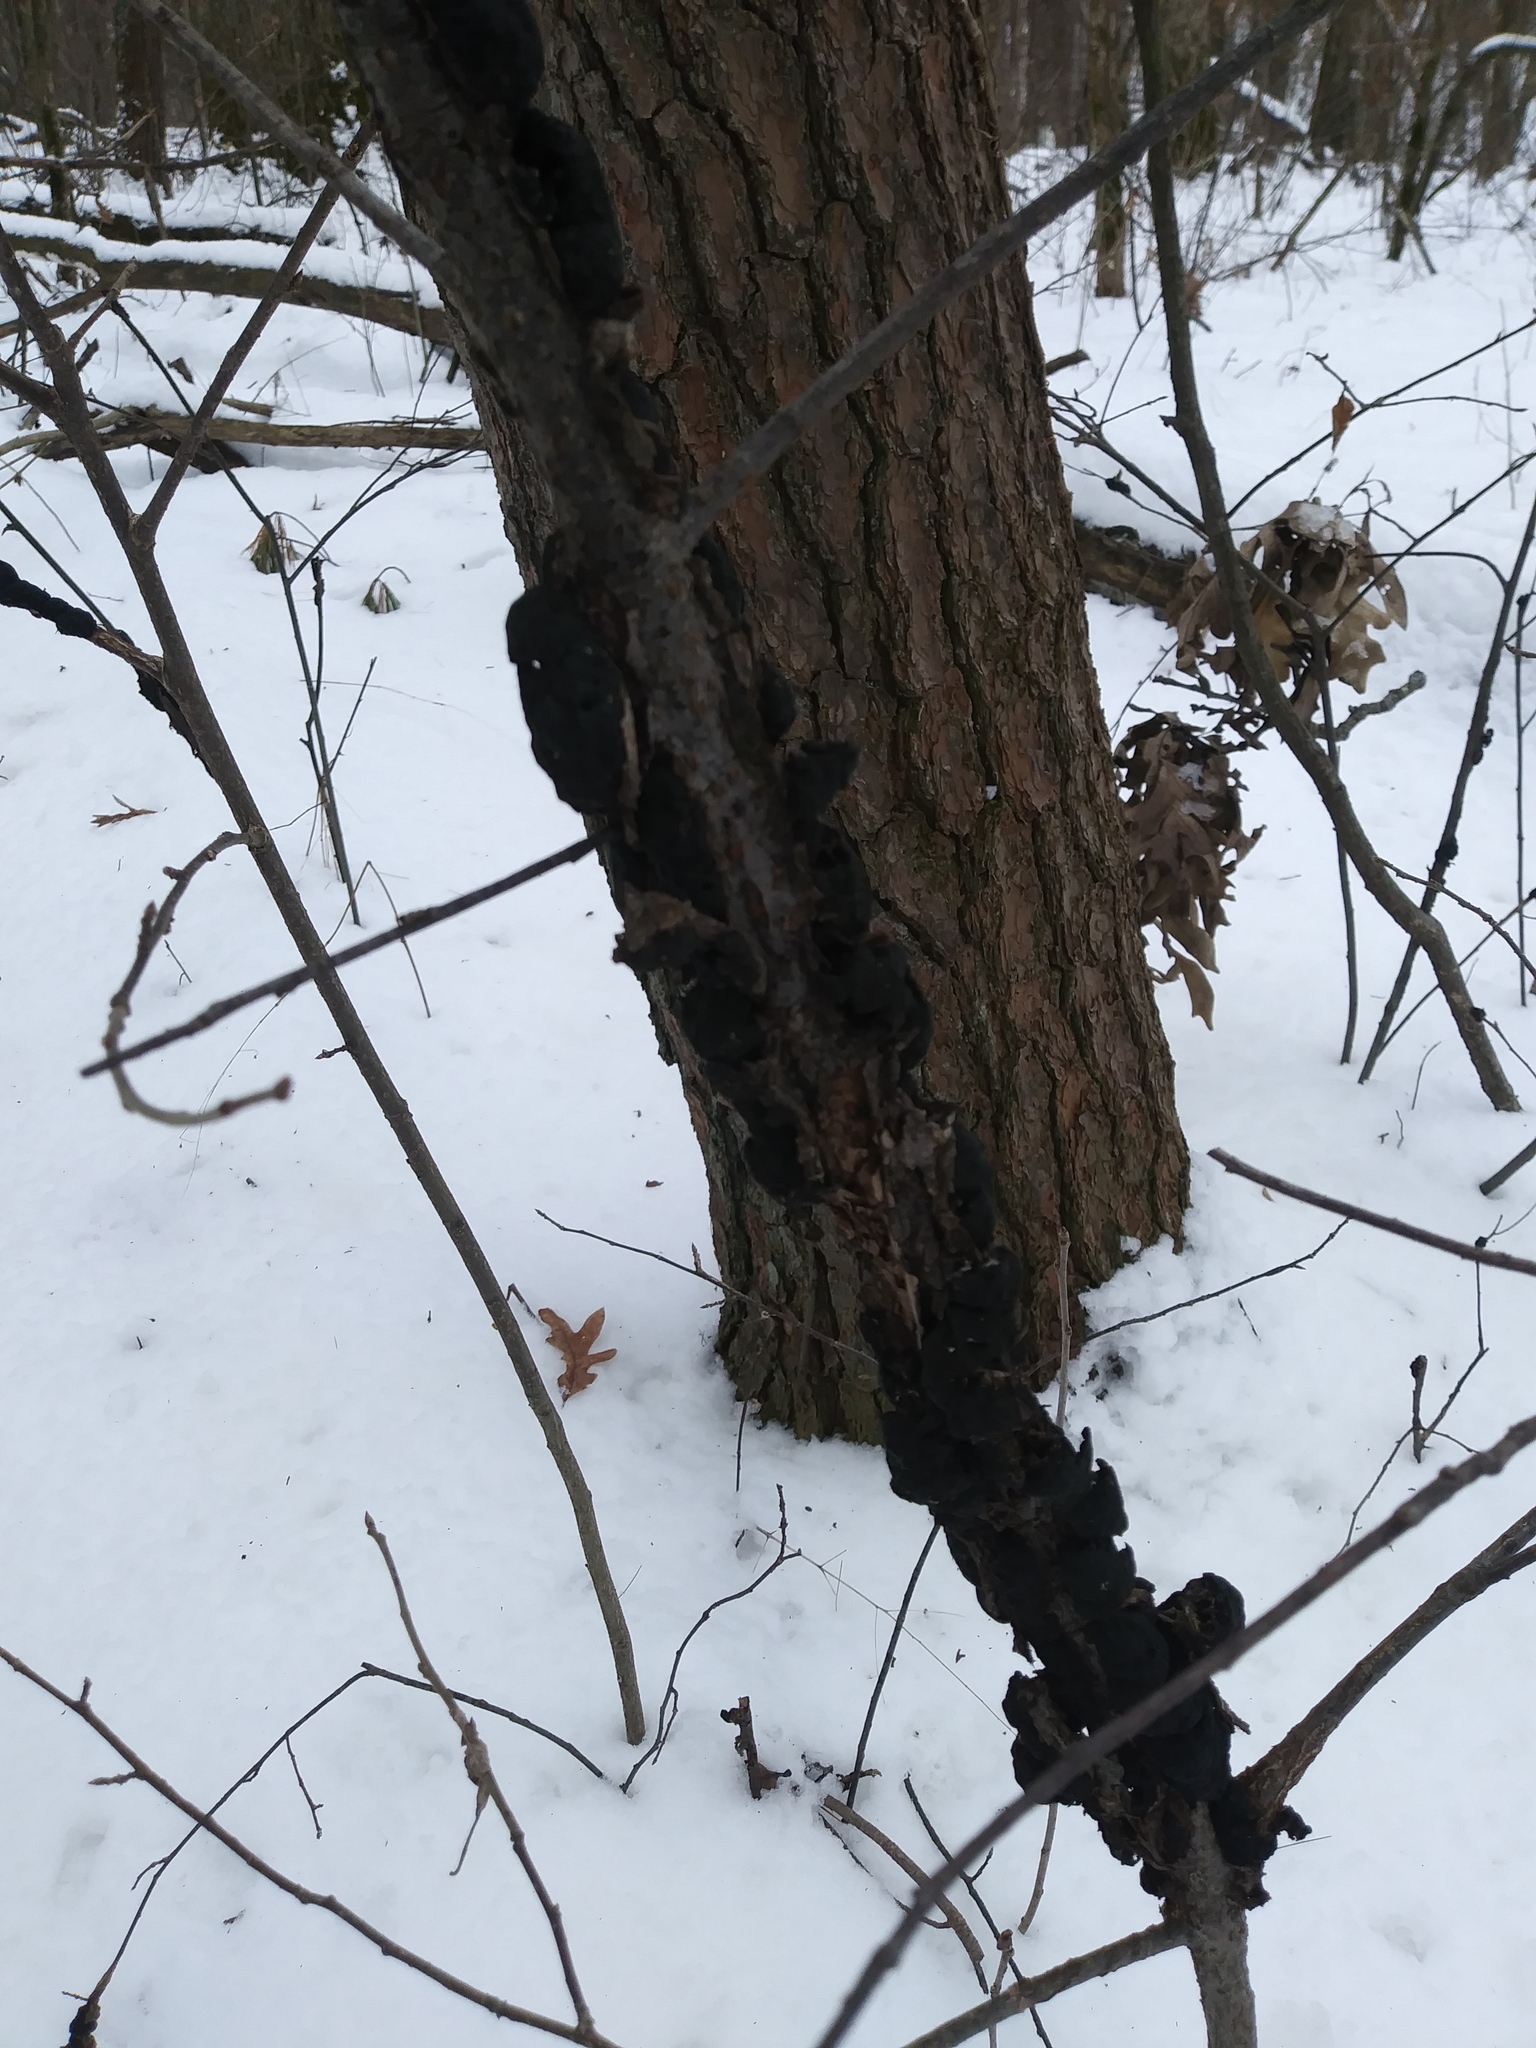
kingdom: Fungi
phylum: Ascomycota
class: Dothideomycetes
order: Venturiales
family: Venturiaceae
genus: Apiosporina
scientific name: Apiosporina morbosa
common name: Black knot
